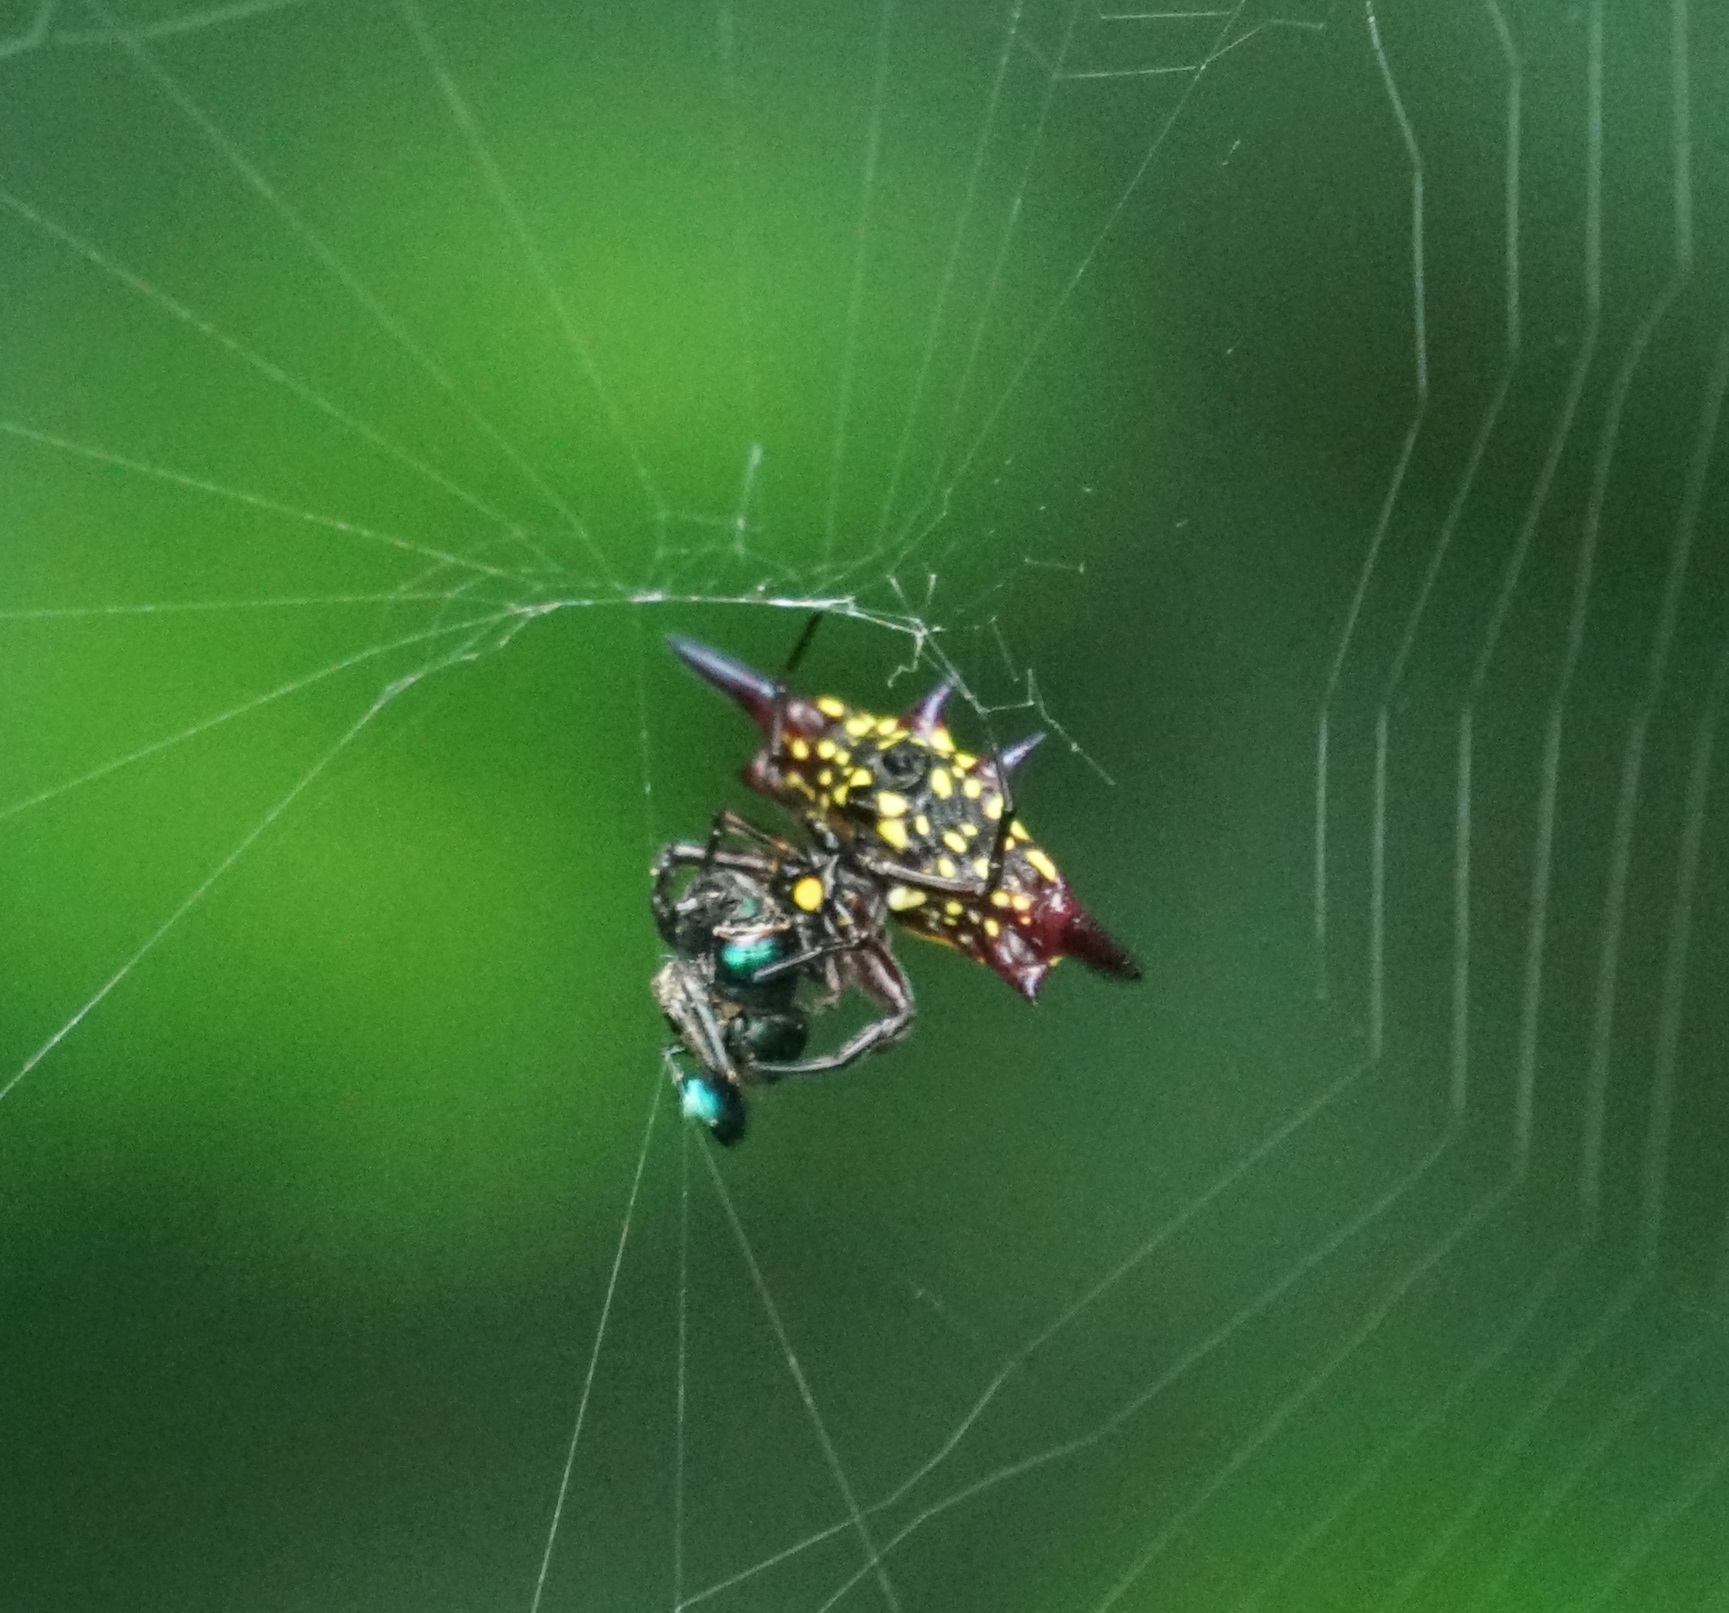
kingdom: Animalia
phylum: Arthropoda
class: Arachnida
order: Araneae
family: Araneidae
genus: Gasteracantha
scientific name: Gasteracantha fornicata
